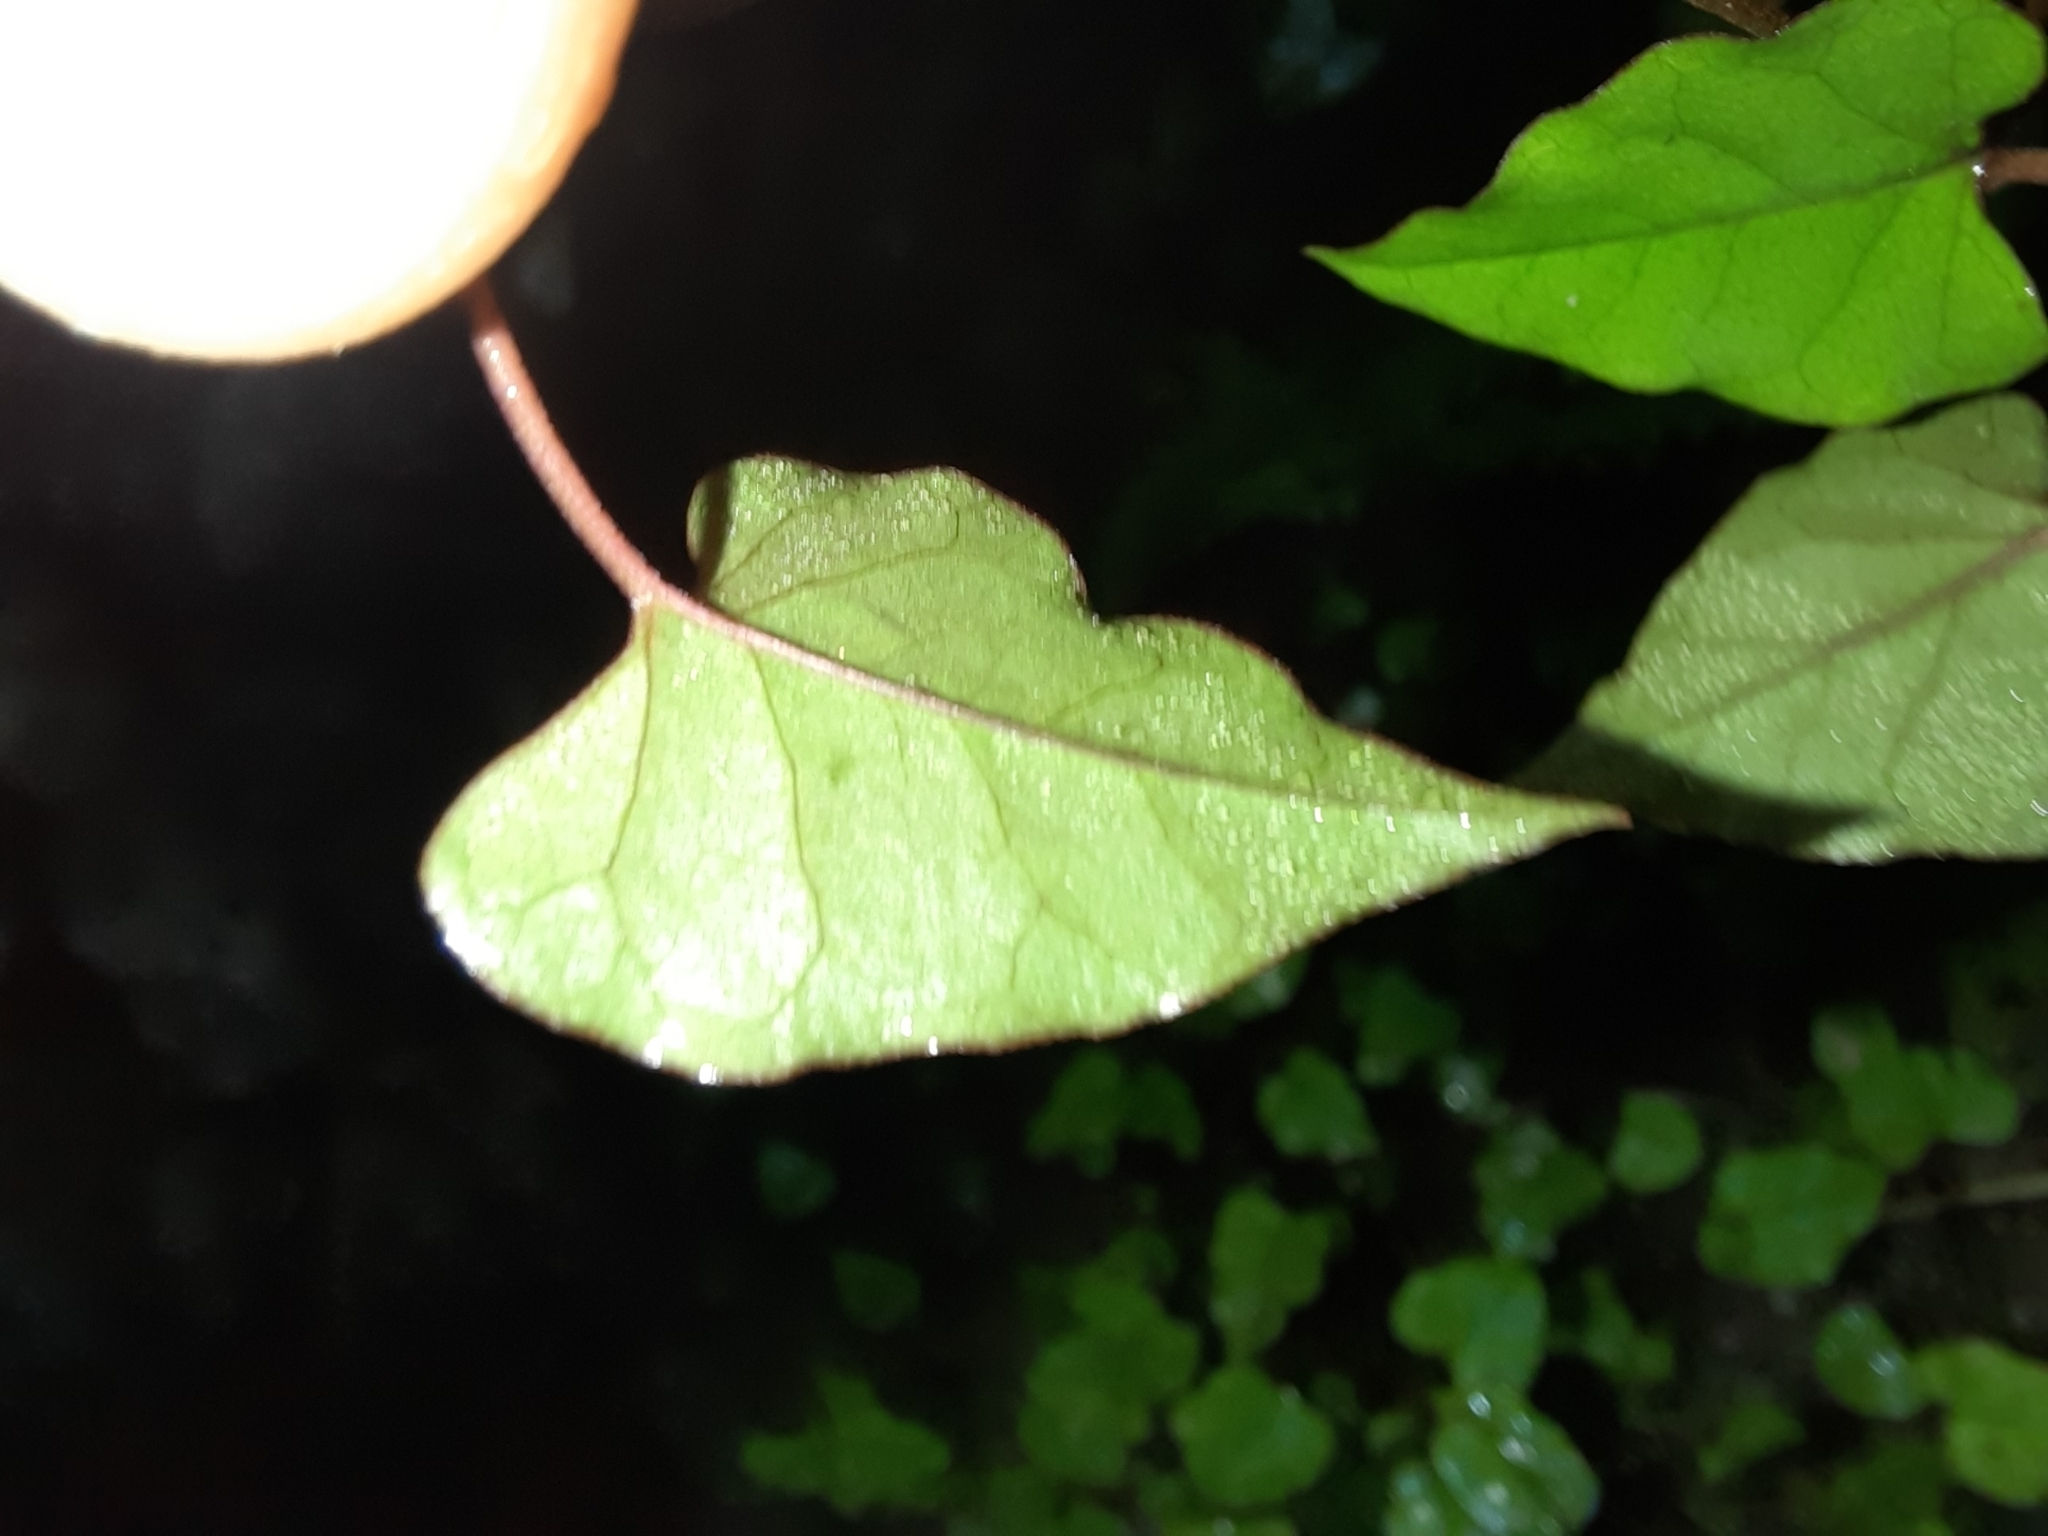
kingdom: Plantae
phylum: Tracheophyta
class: Magnoliopsida
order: Caryophyllales
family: Polygonaceae
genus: Muehlenbeckia
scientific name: Muehlenbeckia australis
